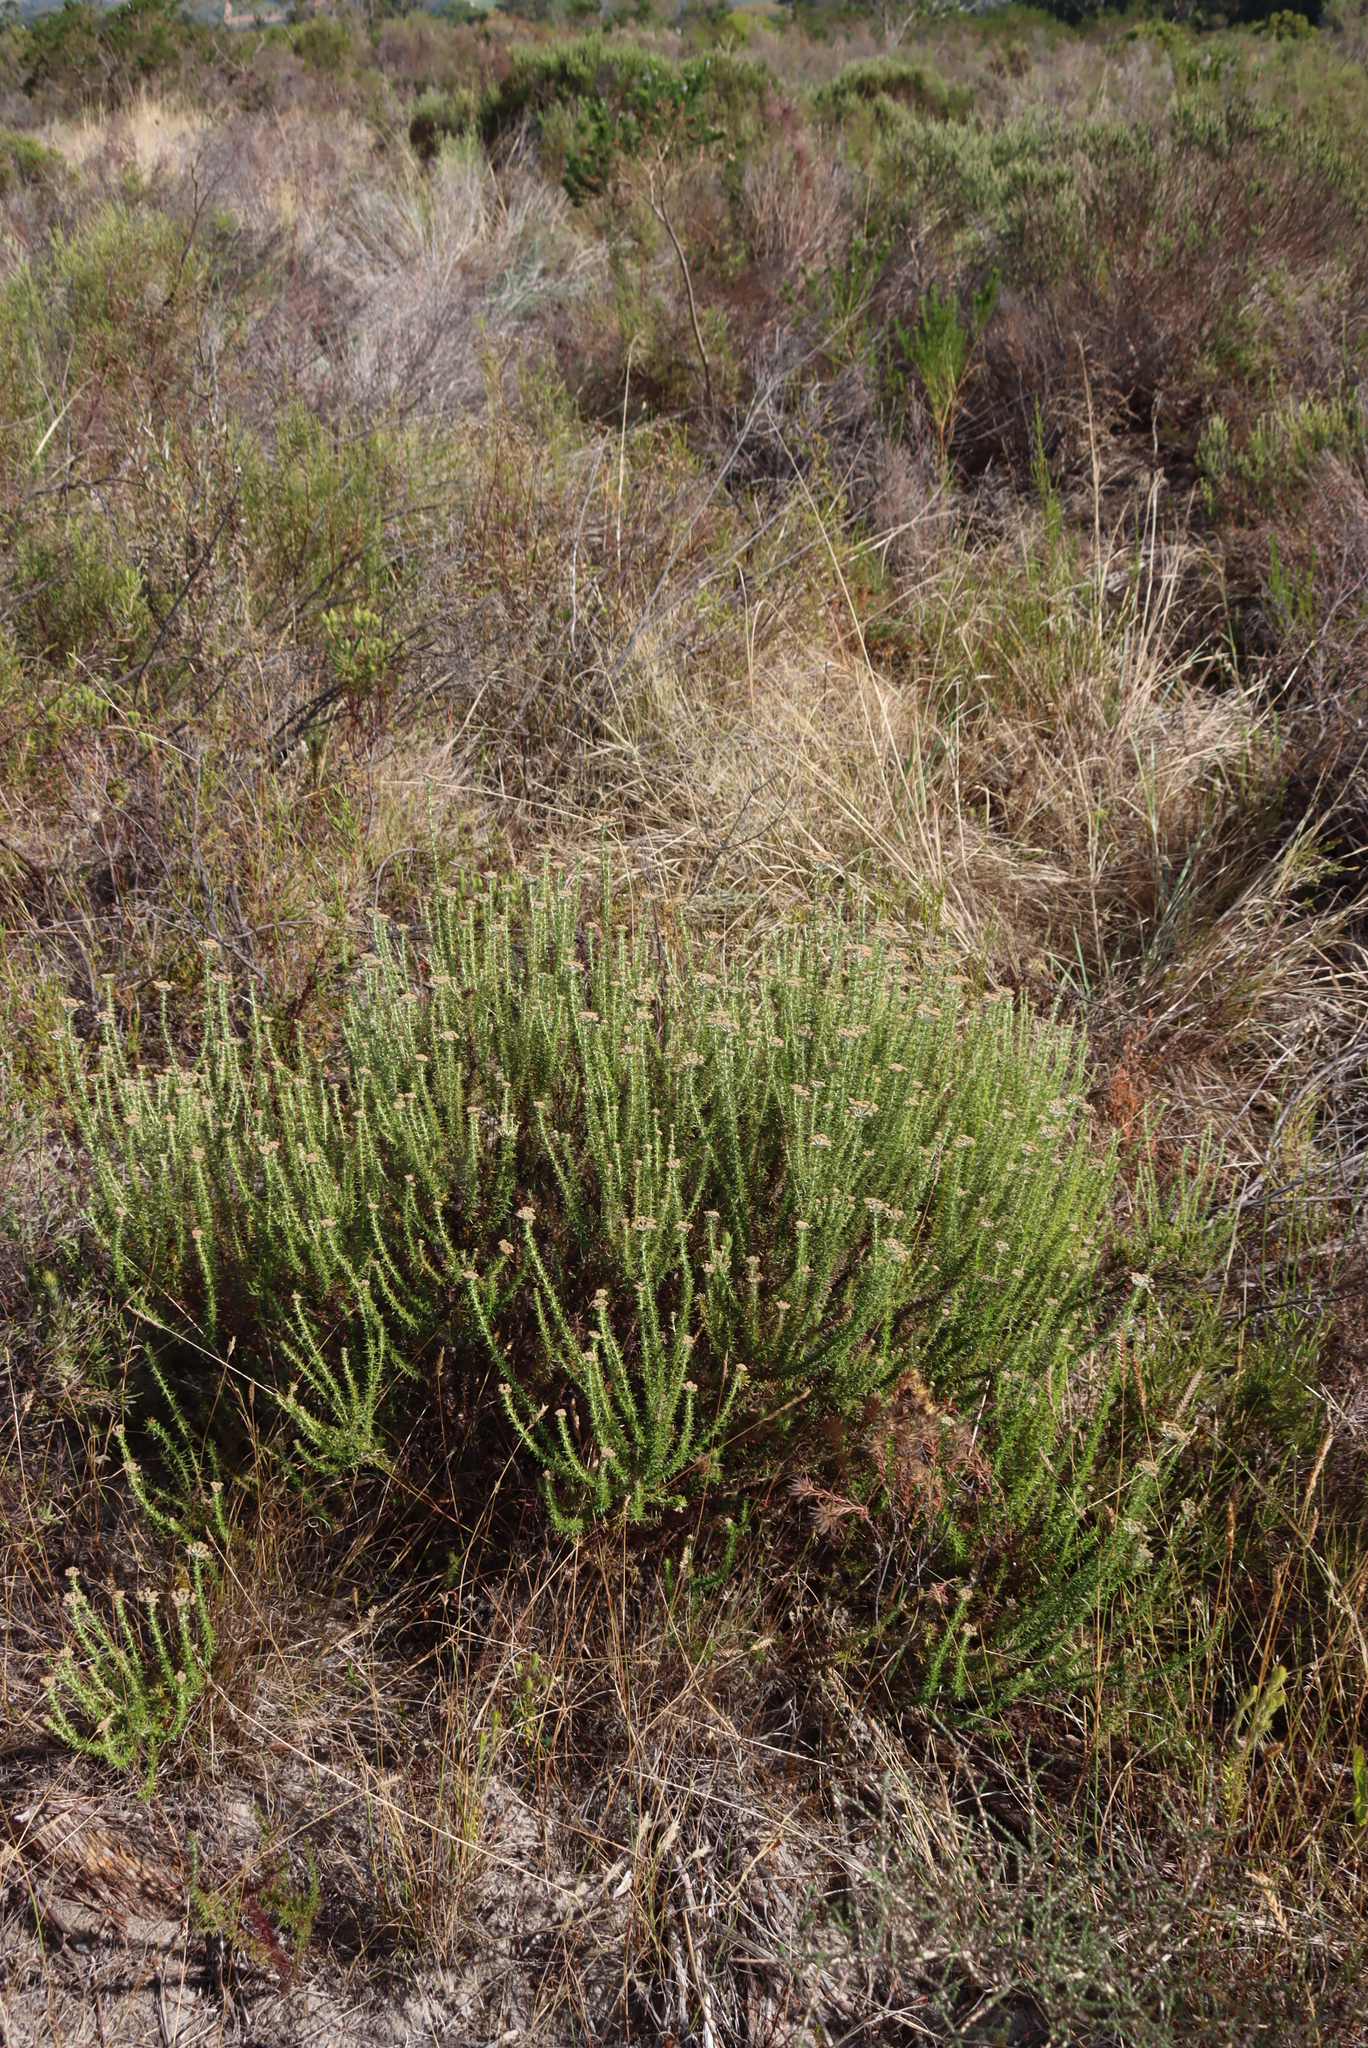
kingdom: Plantae
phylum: Tracheophyta
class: Magnoliopsida
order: Asterales
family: Asteraceae
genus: Metalasia
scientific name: Metalasia densa
